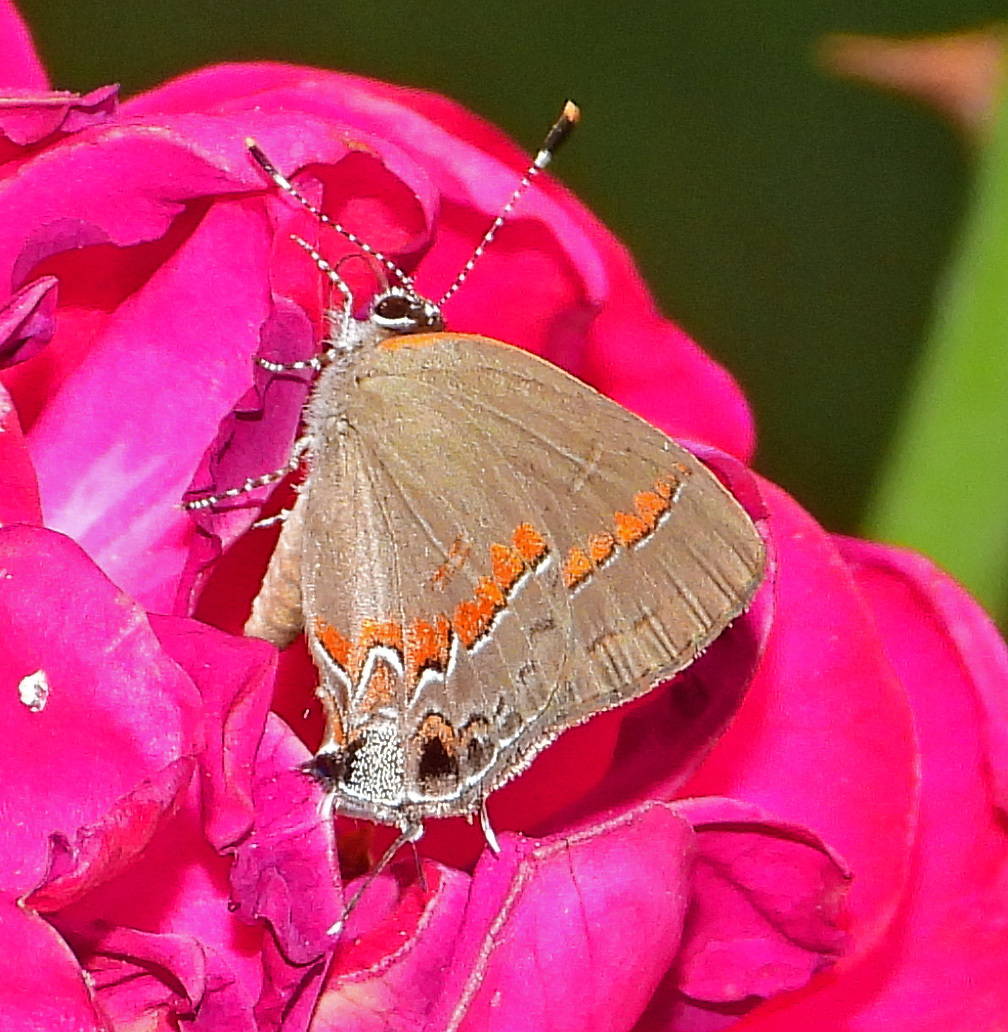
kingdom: Animalia
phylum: Arthropoda
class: Insecta
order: Lepidoptera
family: Lycaenidae
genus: Calycopis
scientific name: Calycopis cecrops
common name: Red-banded hairstreak
